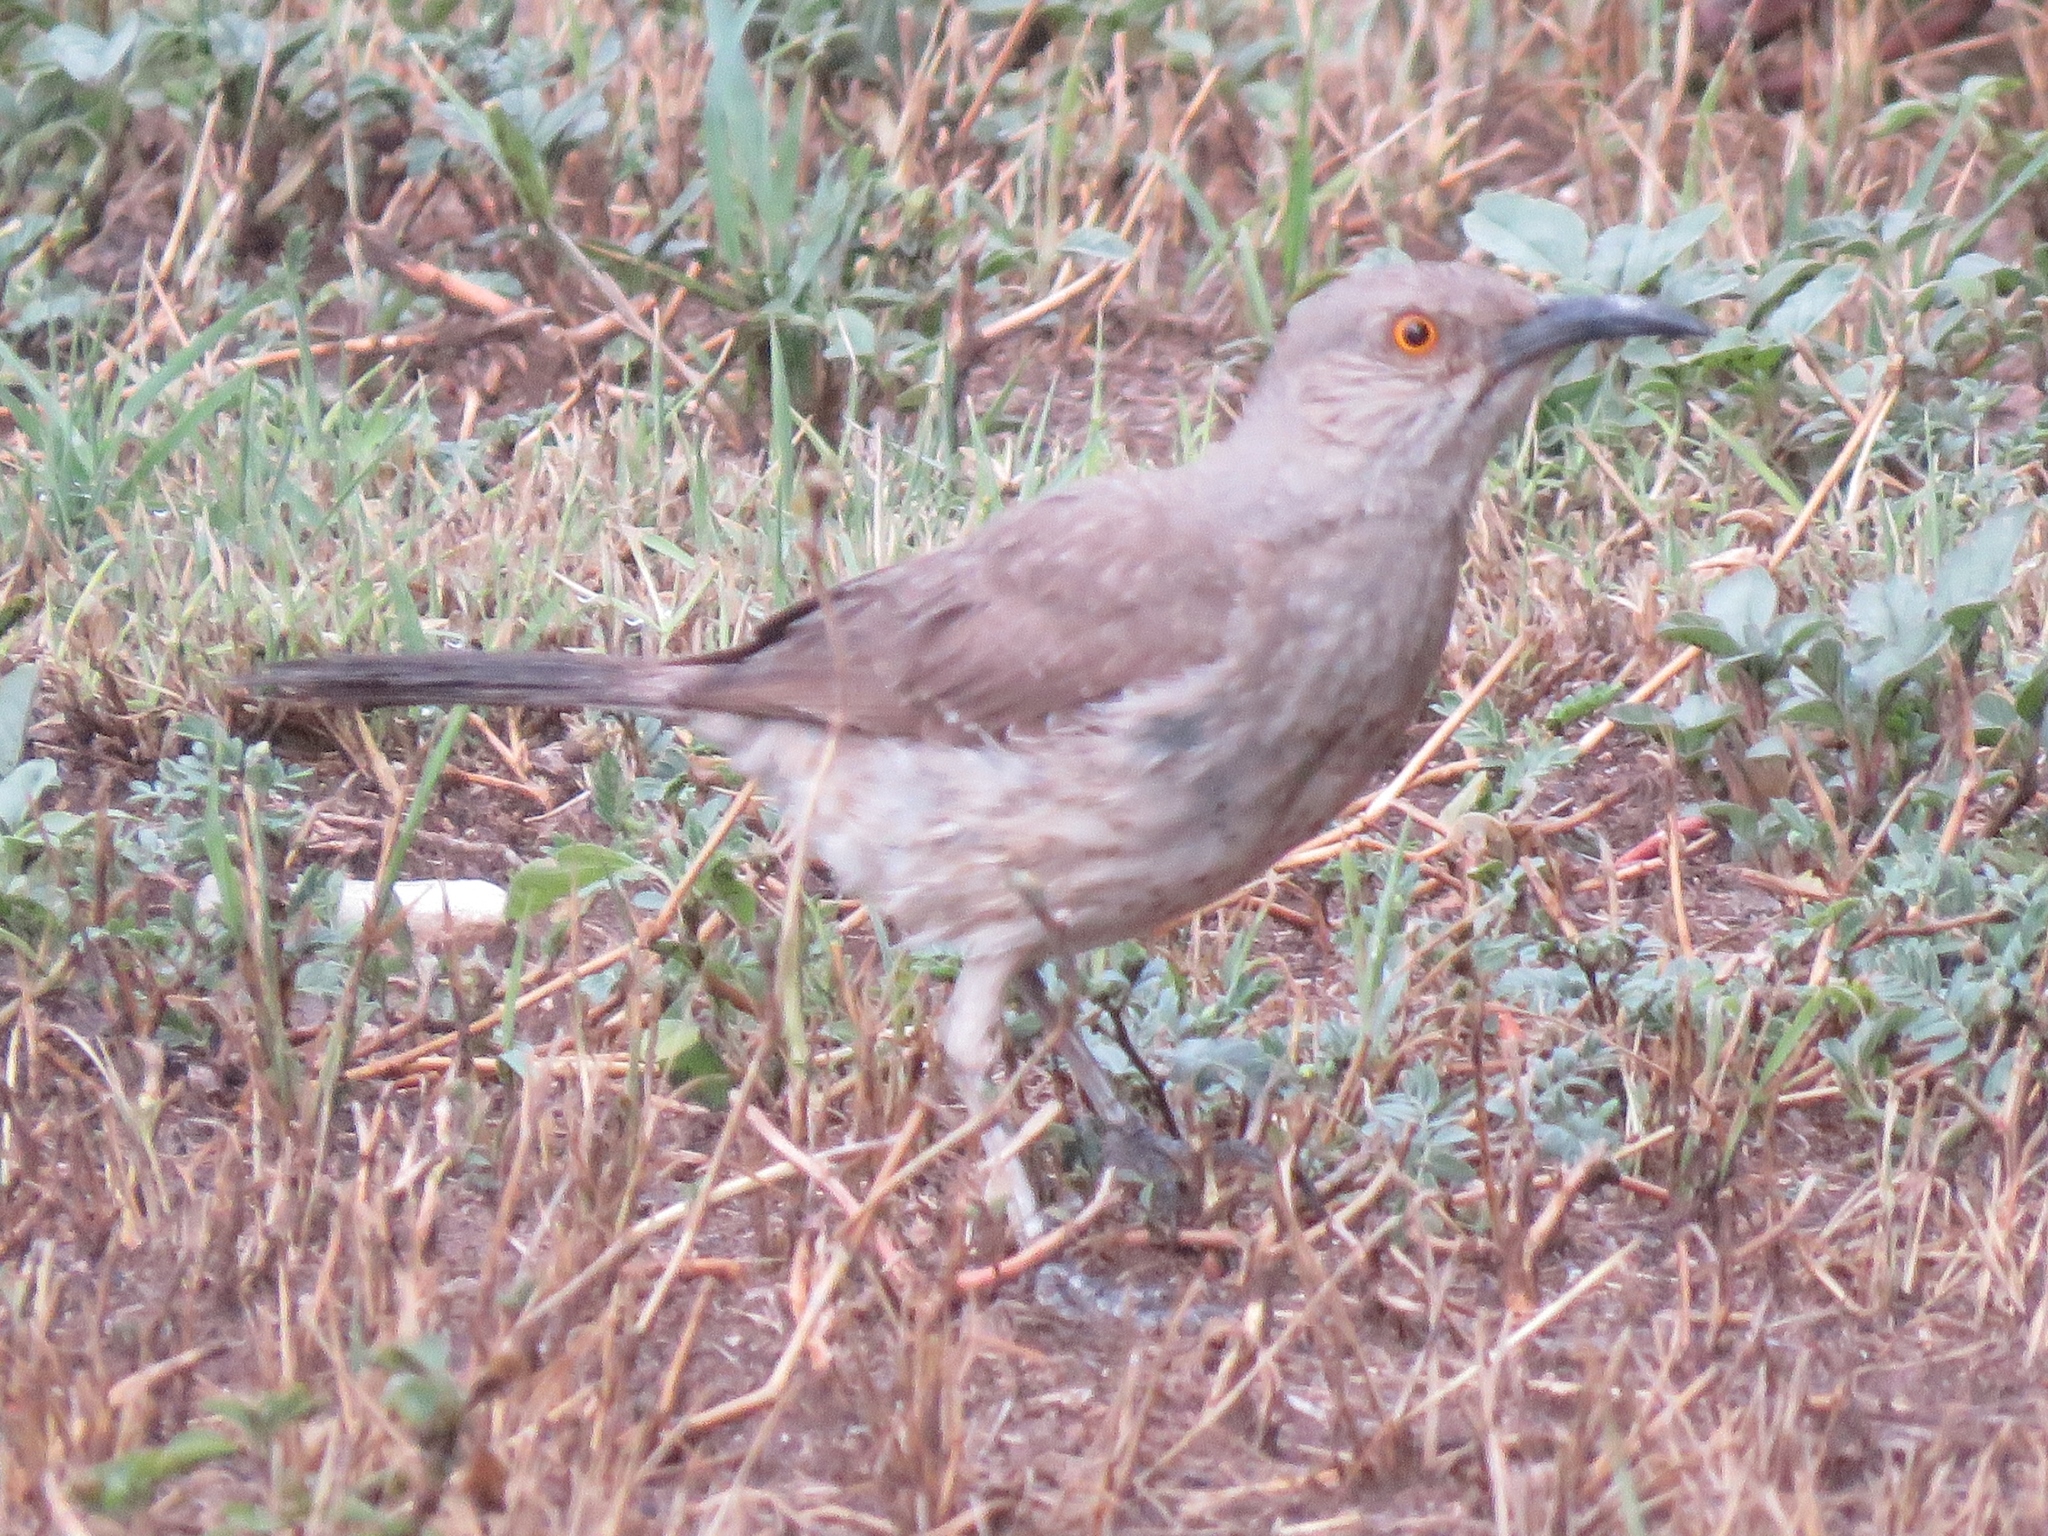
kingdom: Animalia
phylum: Chordata
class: Aves
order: Passeriformes
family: Mimidae
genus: Toxostoma
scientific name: Toxostoma curvirostre
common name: Curve-billed thrasher
